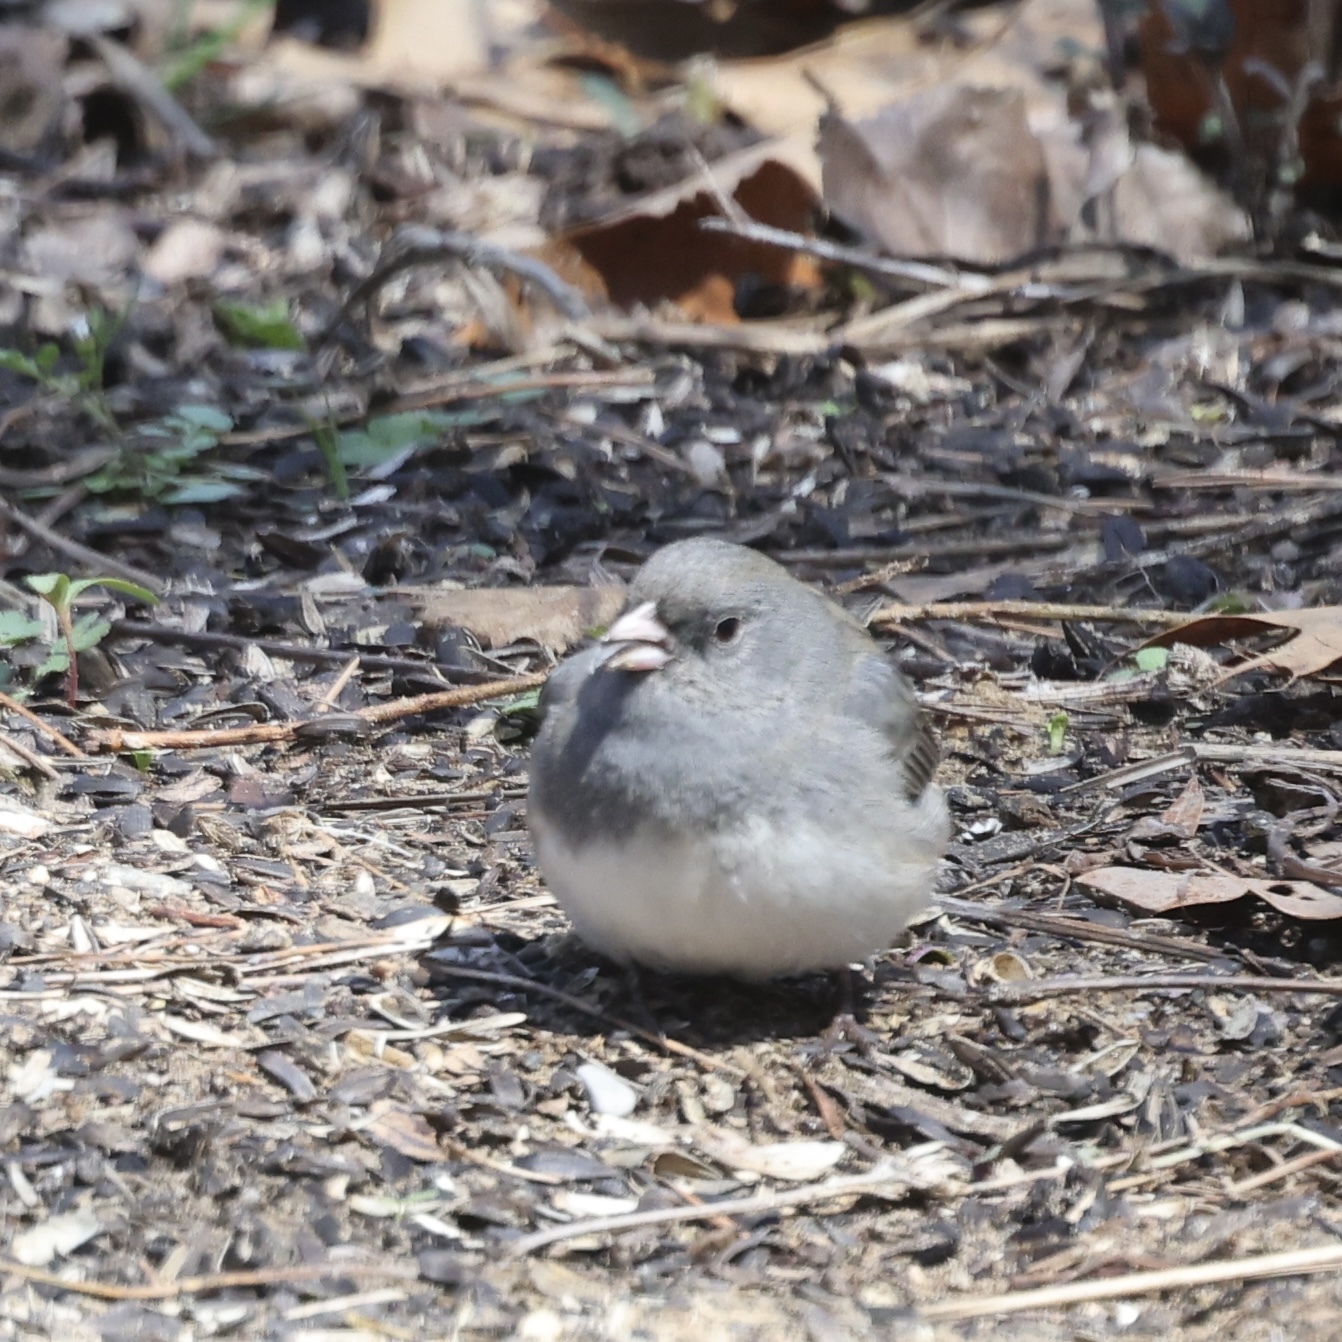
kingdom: Animalia
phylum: Chordata
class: Aves
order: Passeriformes
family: Passerellidae
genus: Junco
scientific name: Junco hyemalis
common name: Dark-eyed junco
